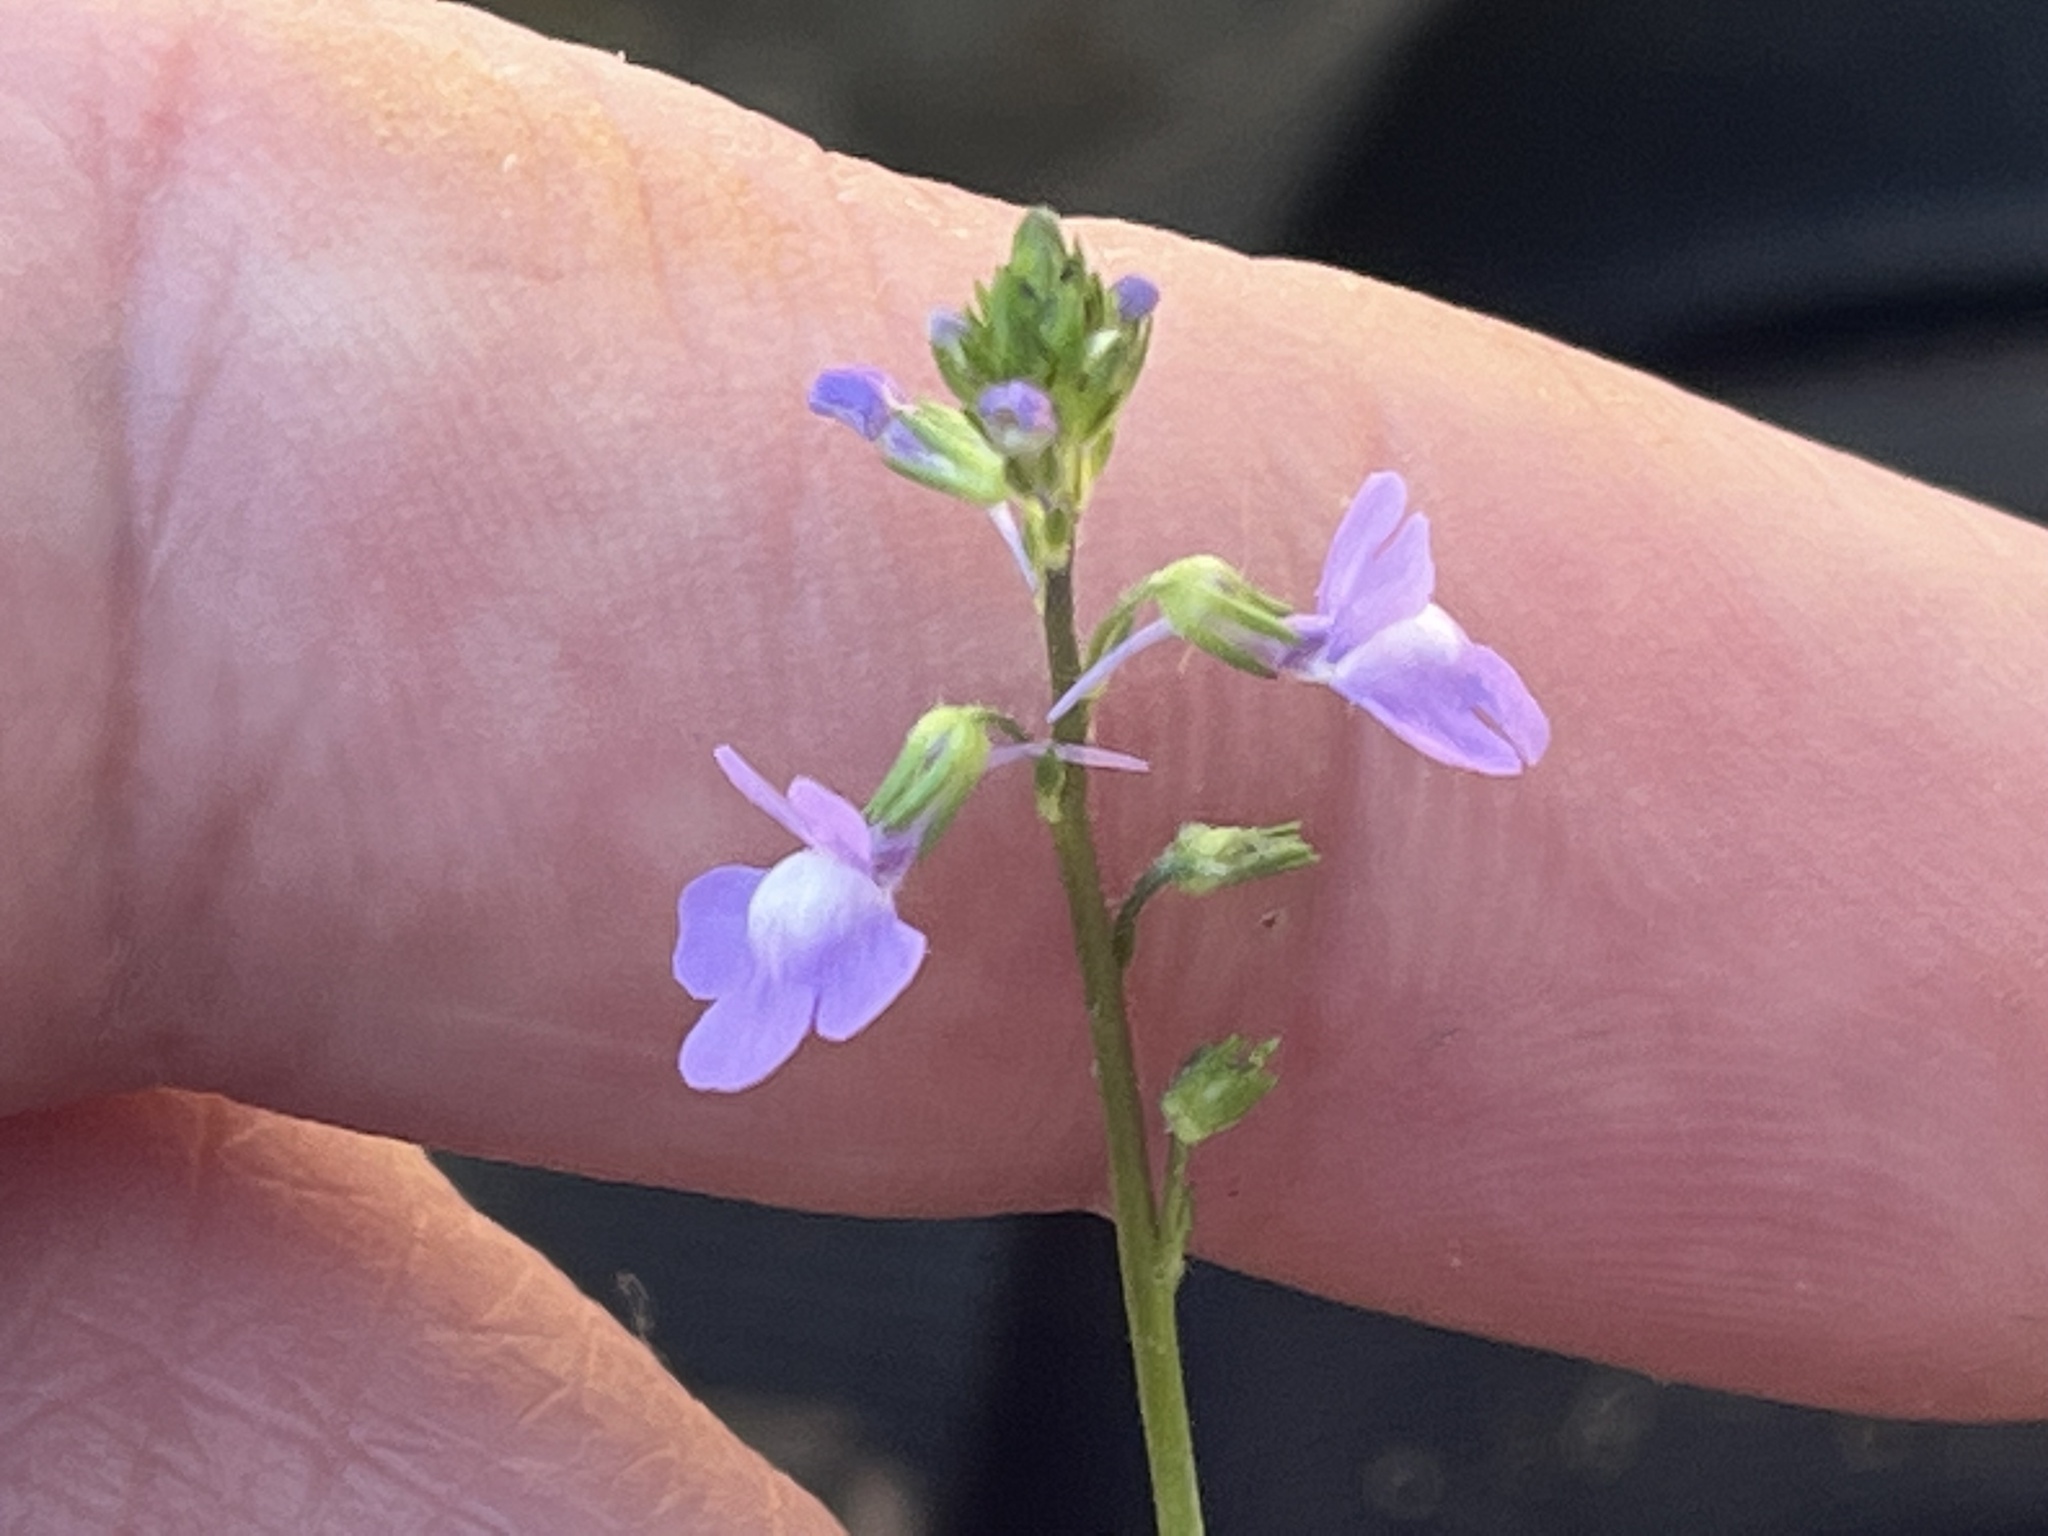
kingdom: Plantae
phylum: Tracheophyta
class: Magnoliopsida
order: Lamiales
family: Plantaginaceae
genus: Nuttallanthus
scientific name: Nuttallanthus canadensis
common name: Blue toadflax
